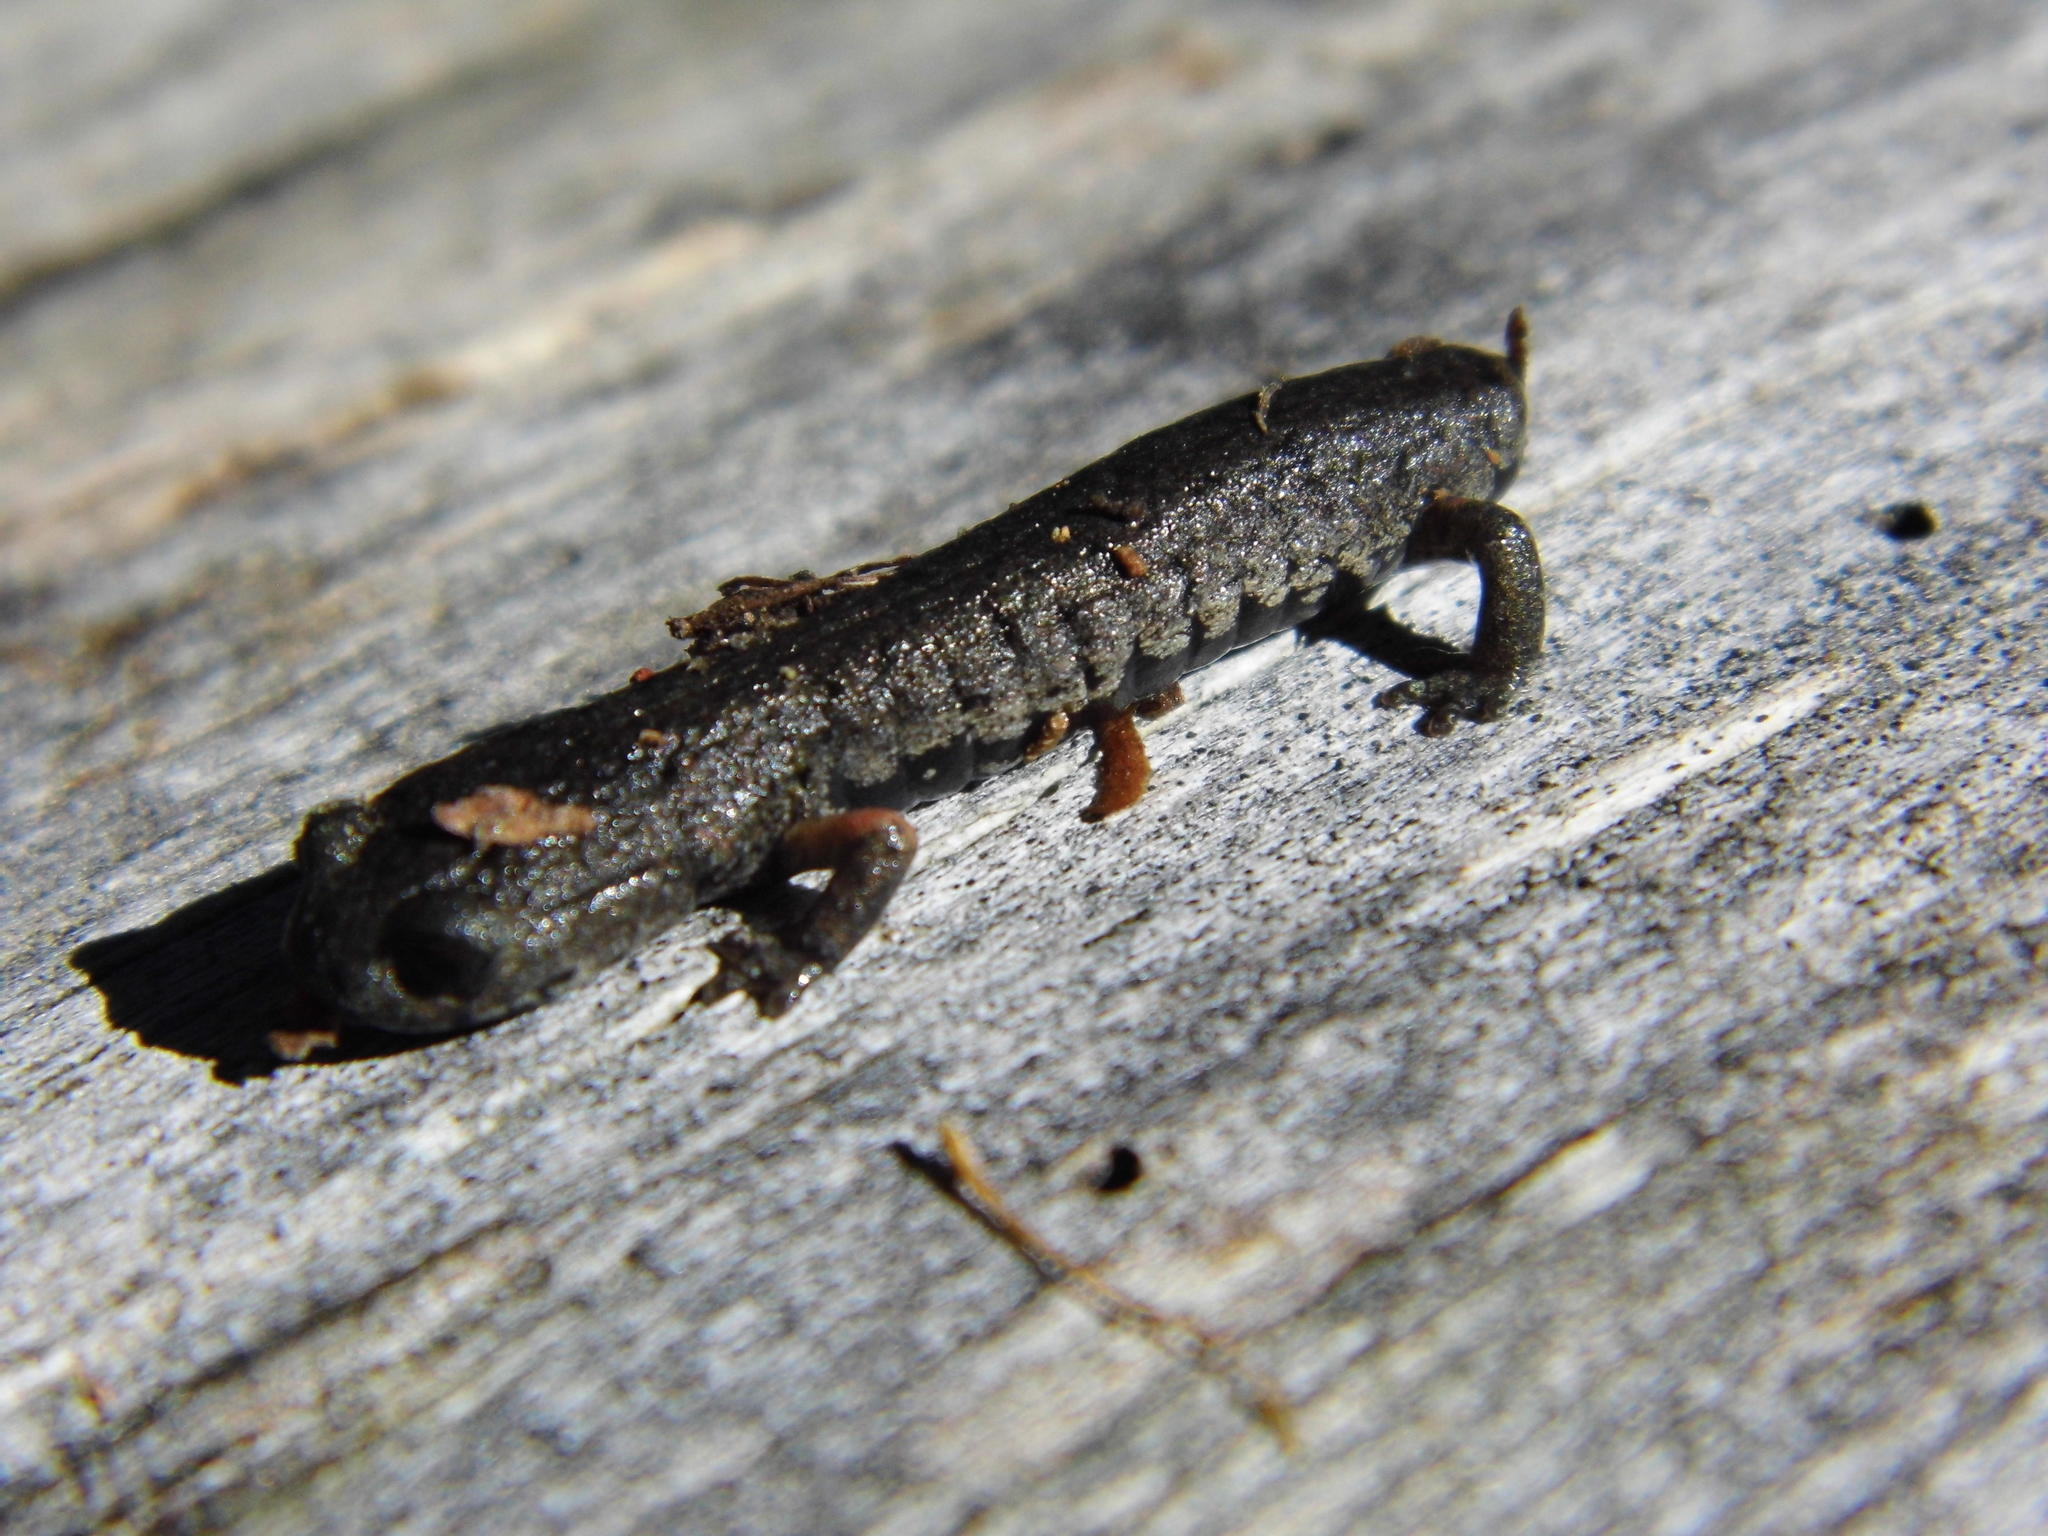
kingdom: Animalia
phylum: Chordata
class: Amphibia
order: Caudata
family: Plethodontidae
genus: Pseudoeurycea
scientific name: Pseudoeurycea cochranae
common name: Cochran's false brook salamander
